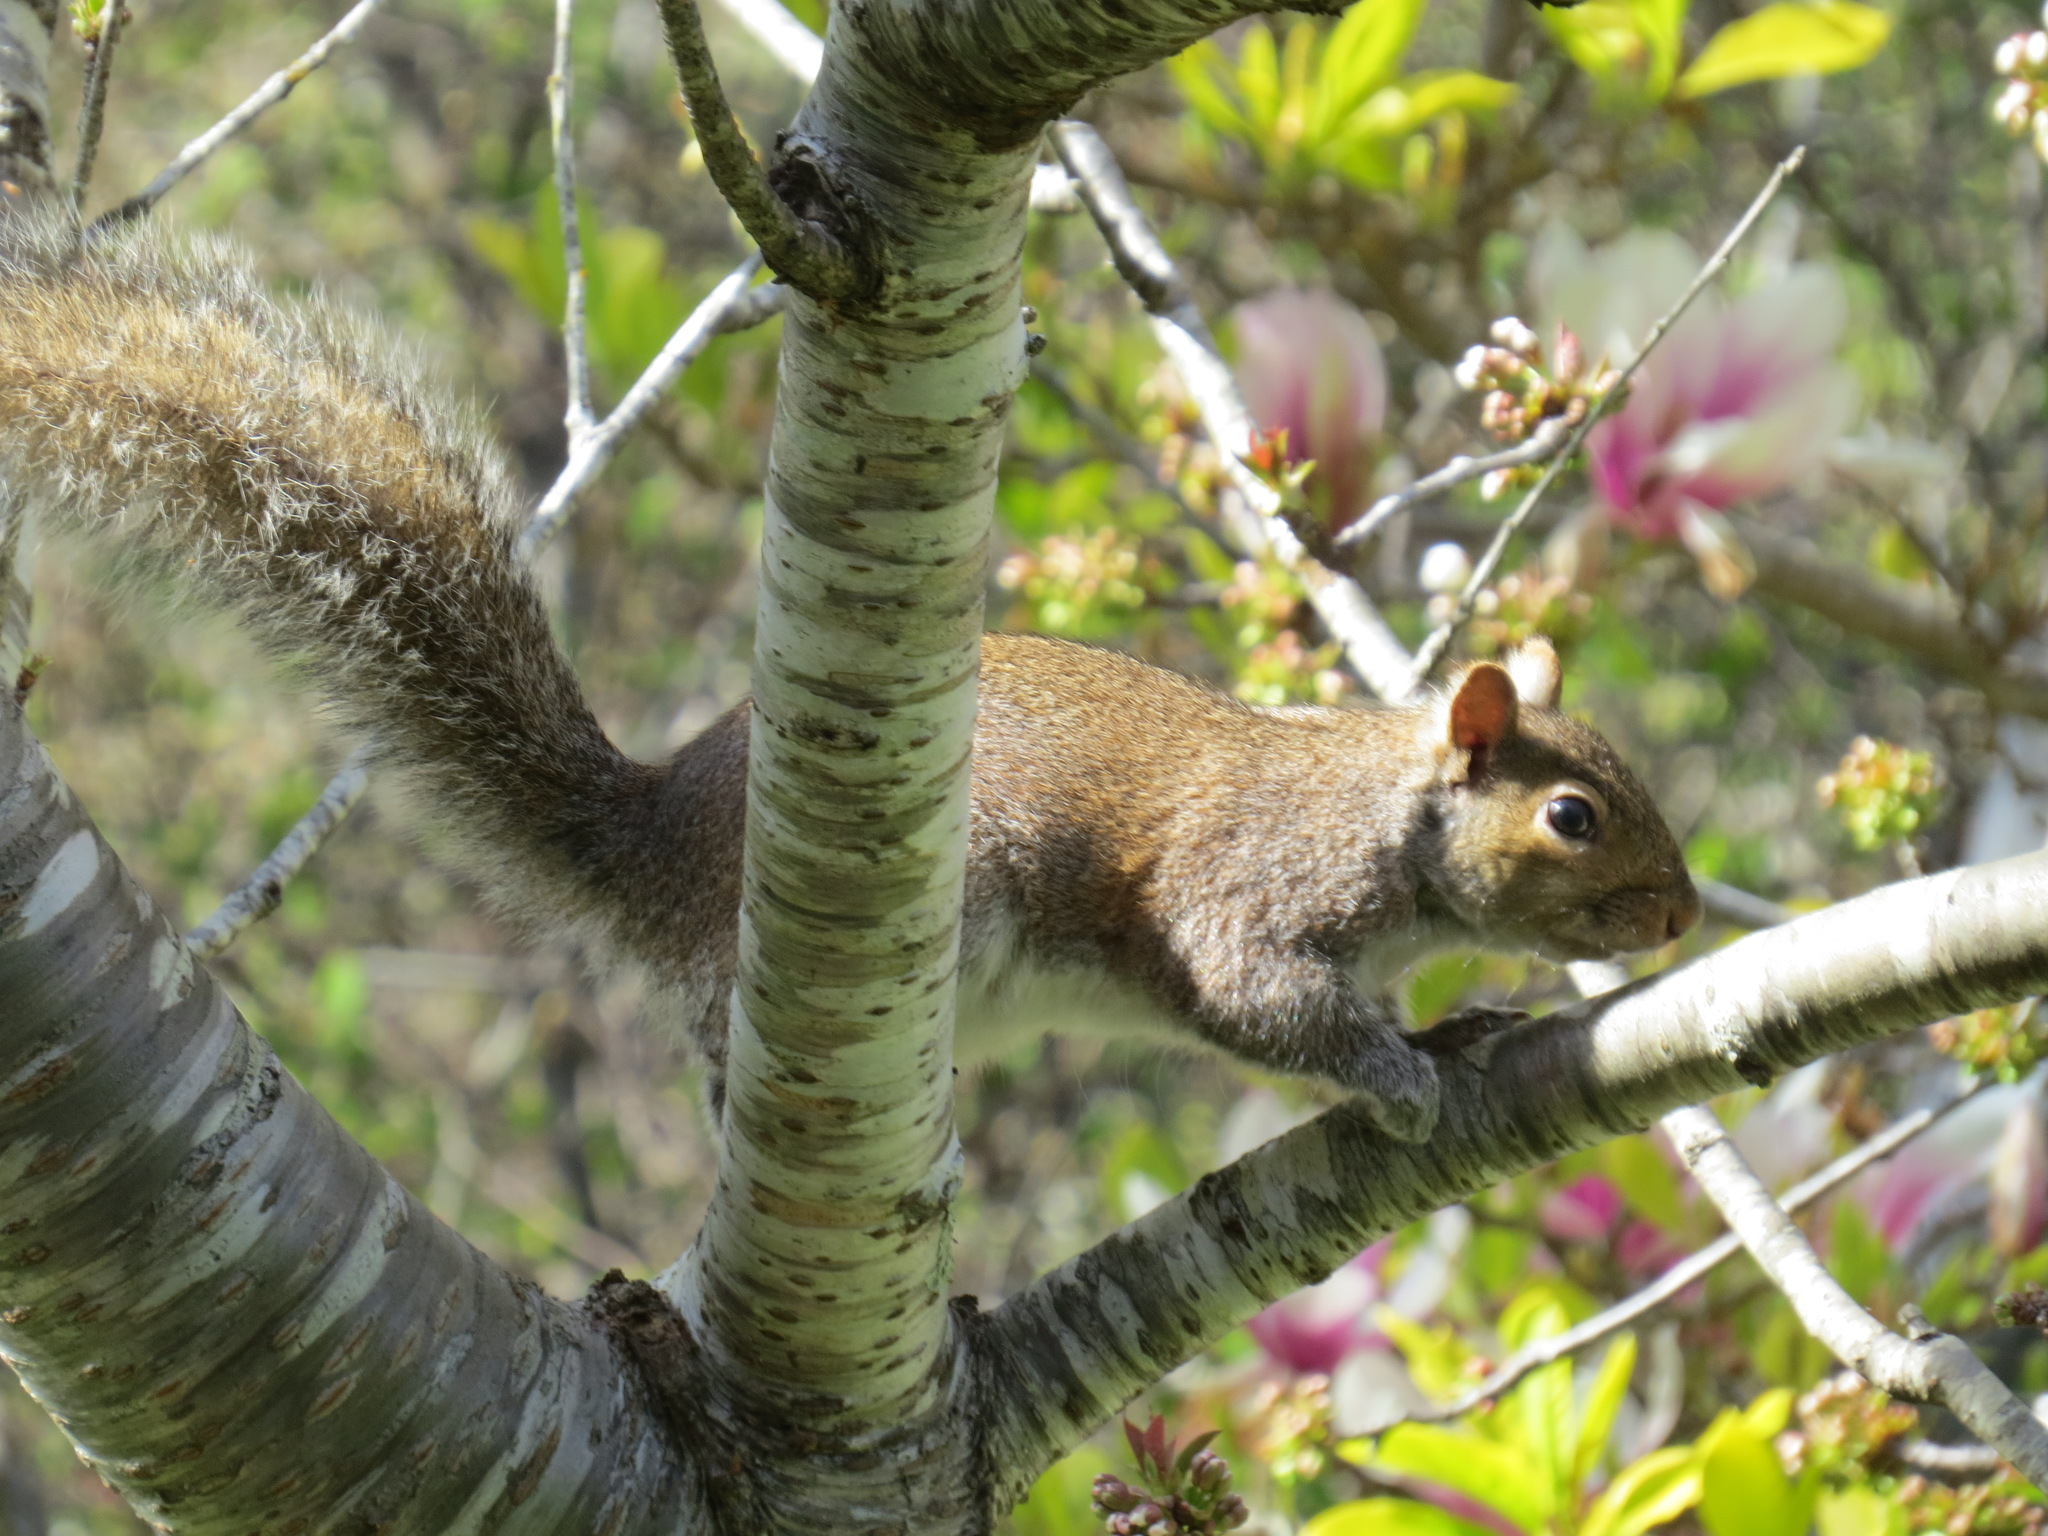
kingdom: Animalia
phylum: Chordata
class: Mammalia
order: Rodentia
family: Sciuridae
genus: Sciurus
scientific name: Sciurus carolinensis
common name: Eastern gray squirrel
